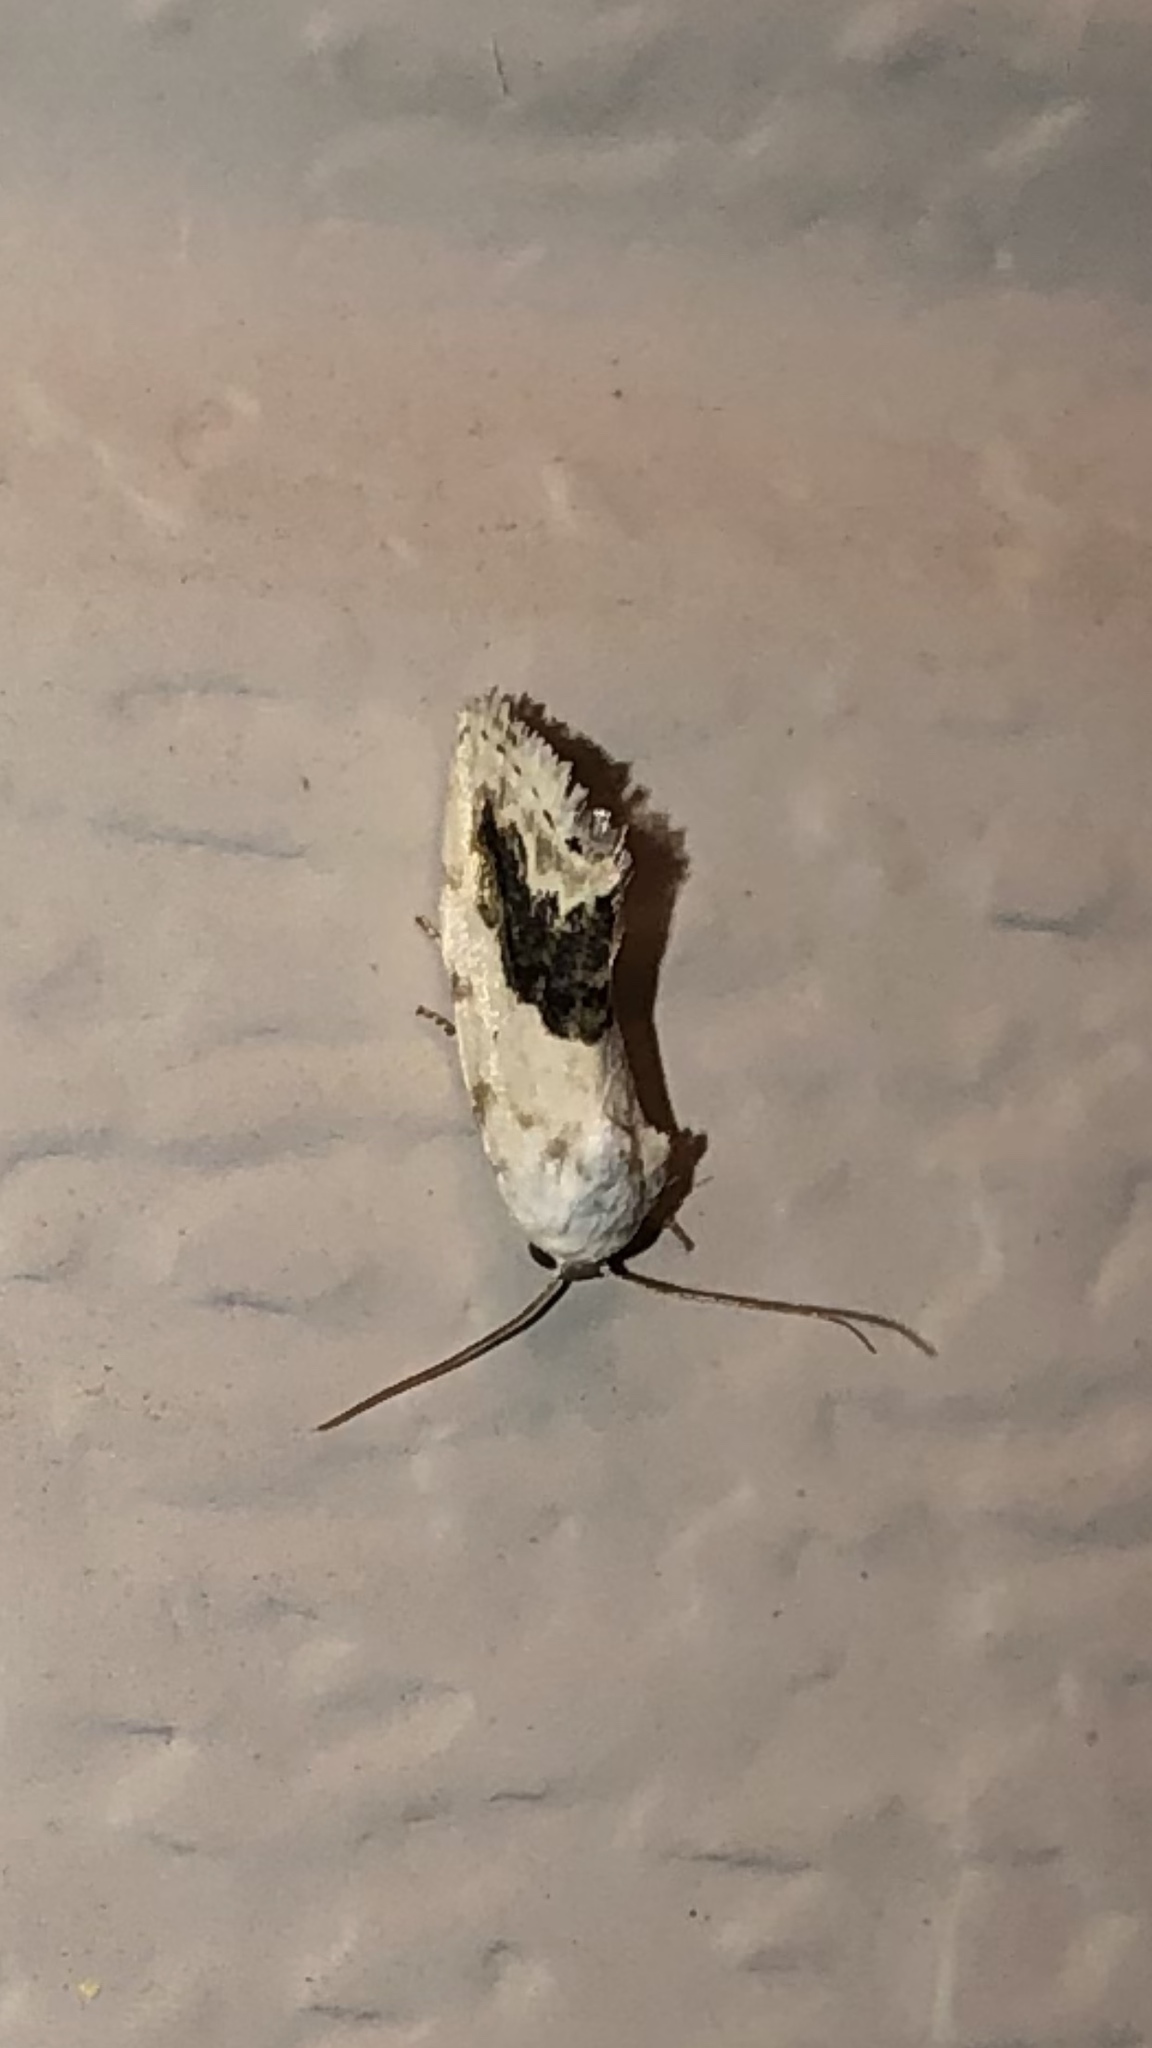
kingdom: Animalia
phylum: Arthropoda
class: Insecta
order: Lepidoptera
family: Noctuidae
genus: Acontia
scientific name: Acontia erastrioides
